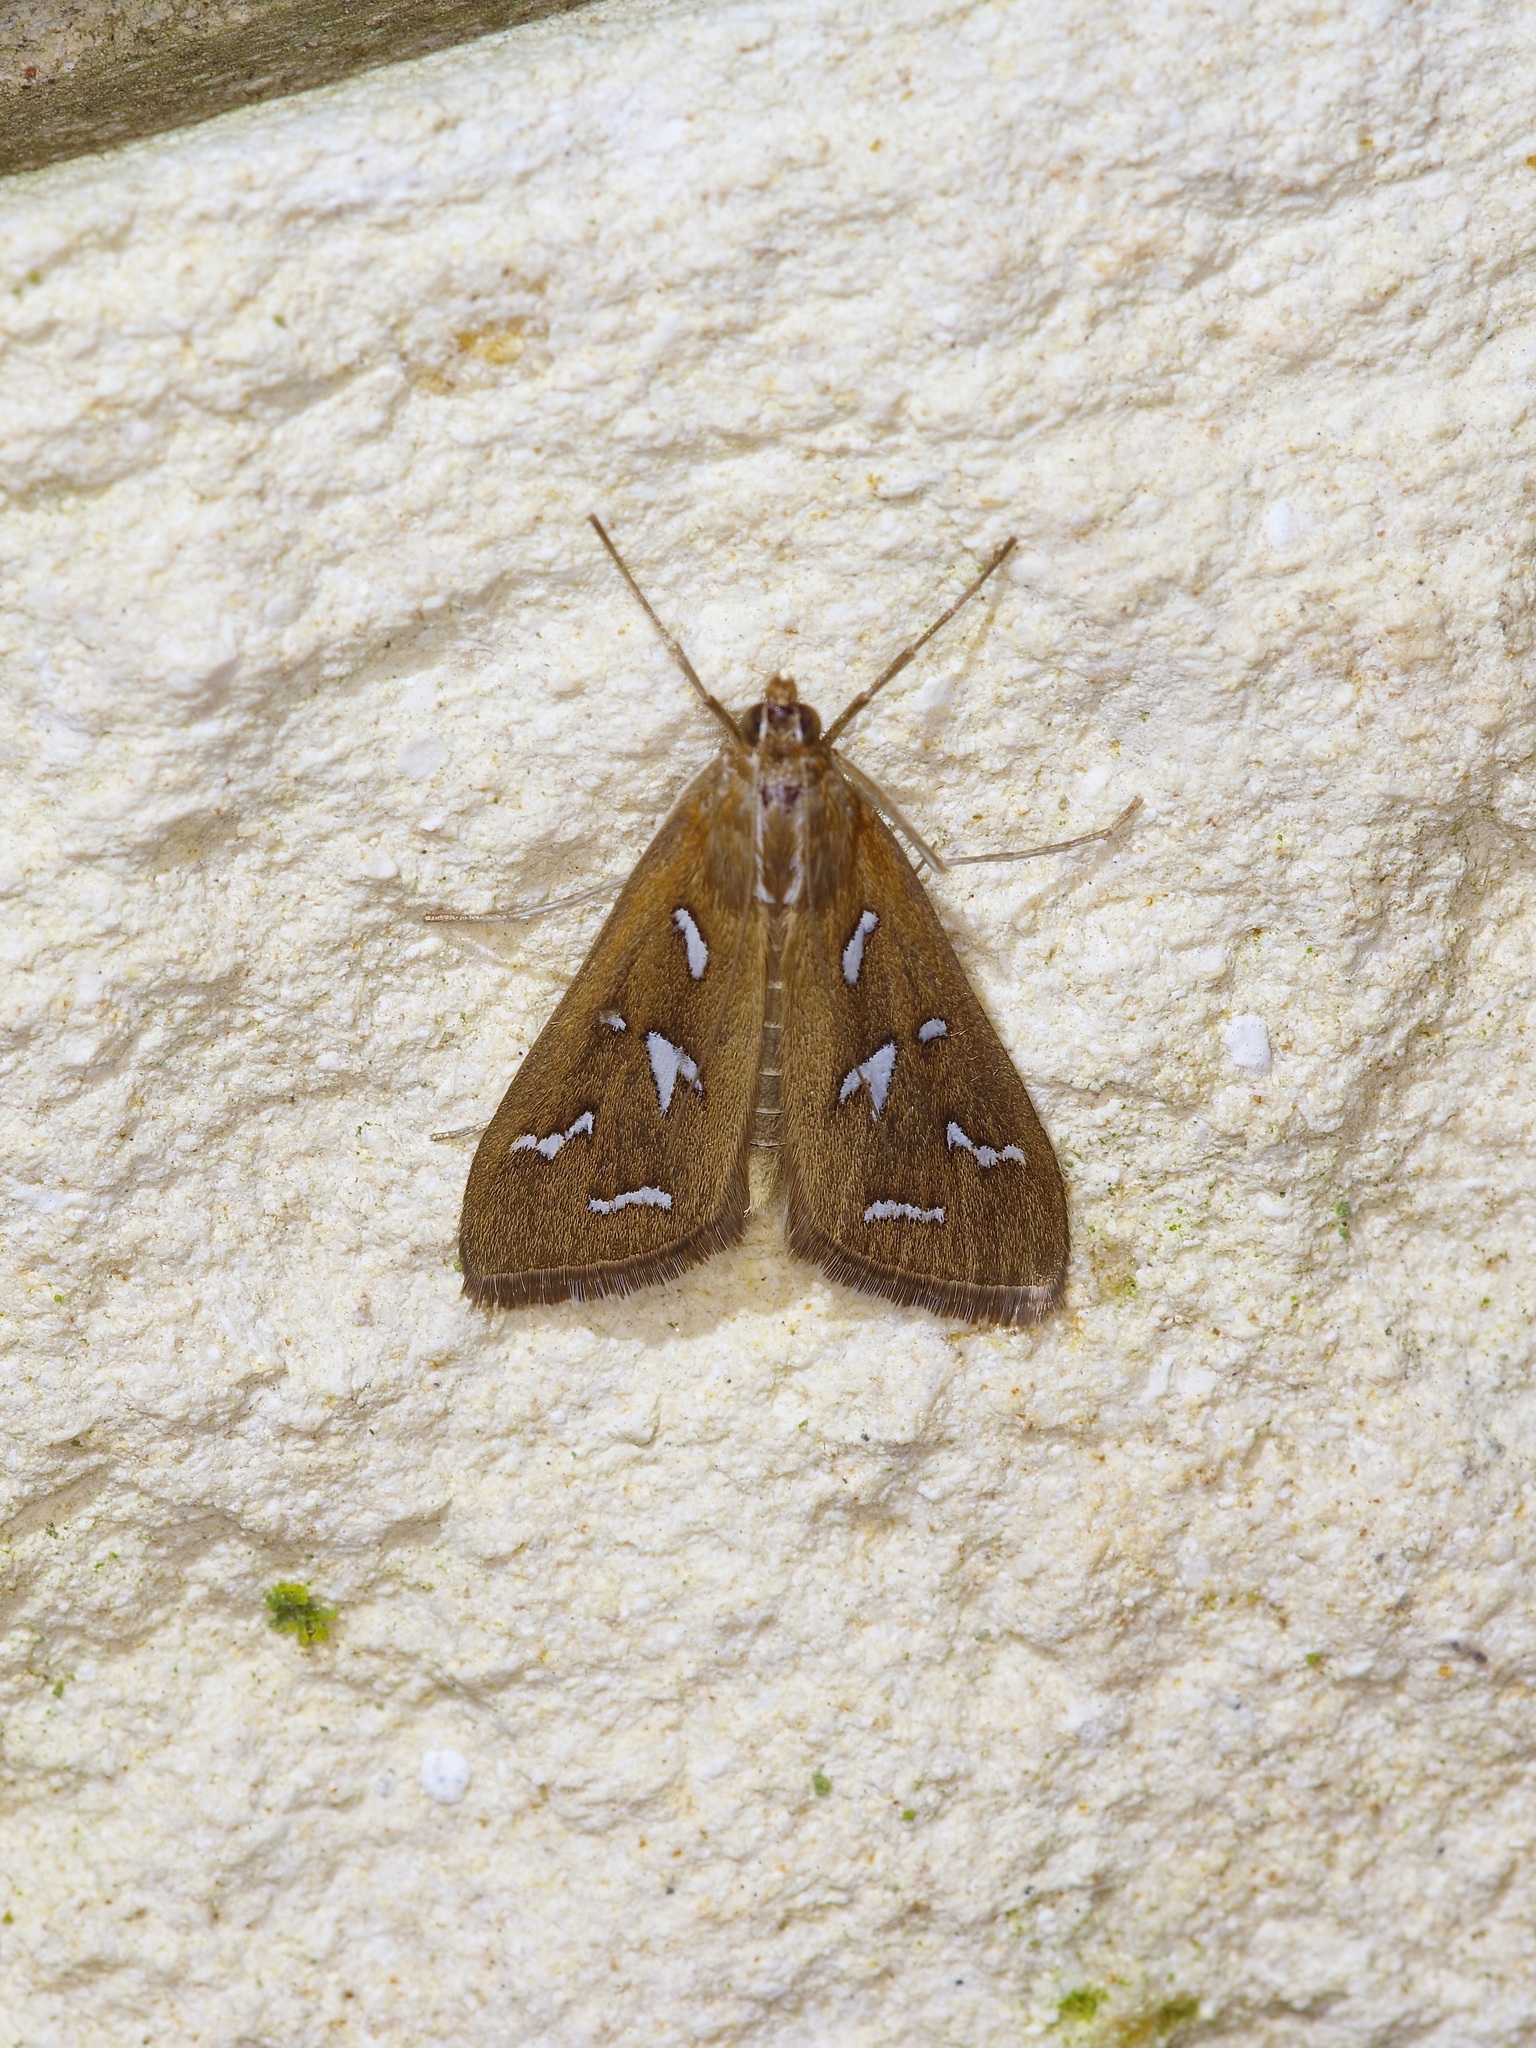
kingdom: Animalia
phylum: Arthropoda
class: Insecta
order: Lepidoptera
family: Crambidae
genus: Diastictis
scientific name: Diastictis fracturalis
